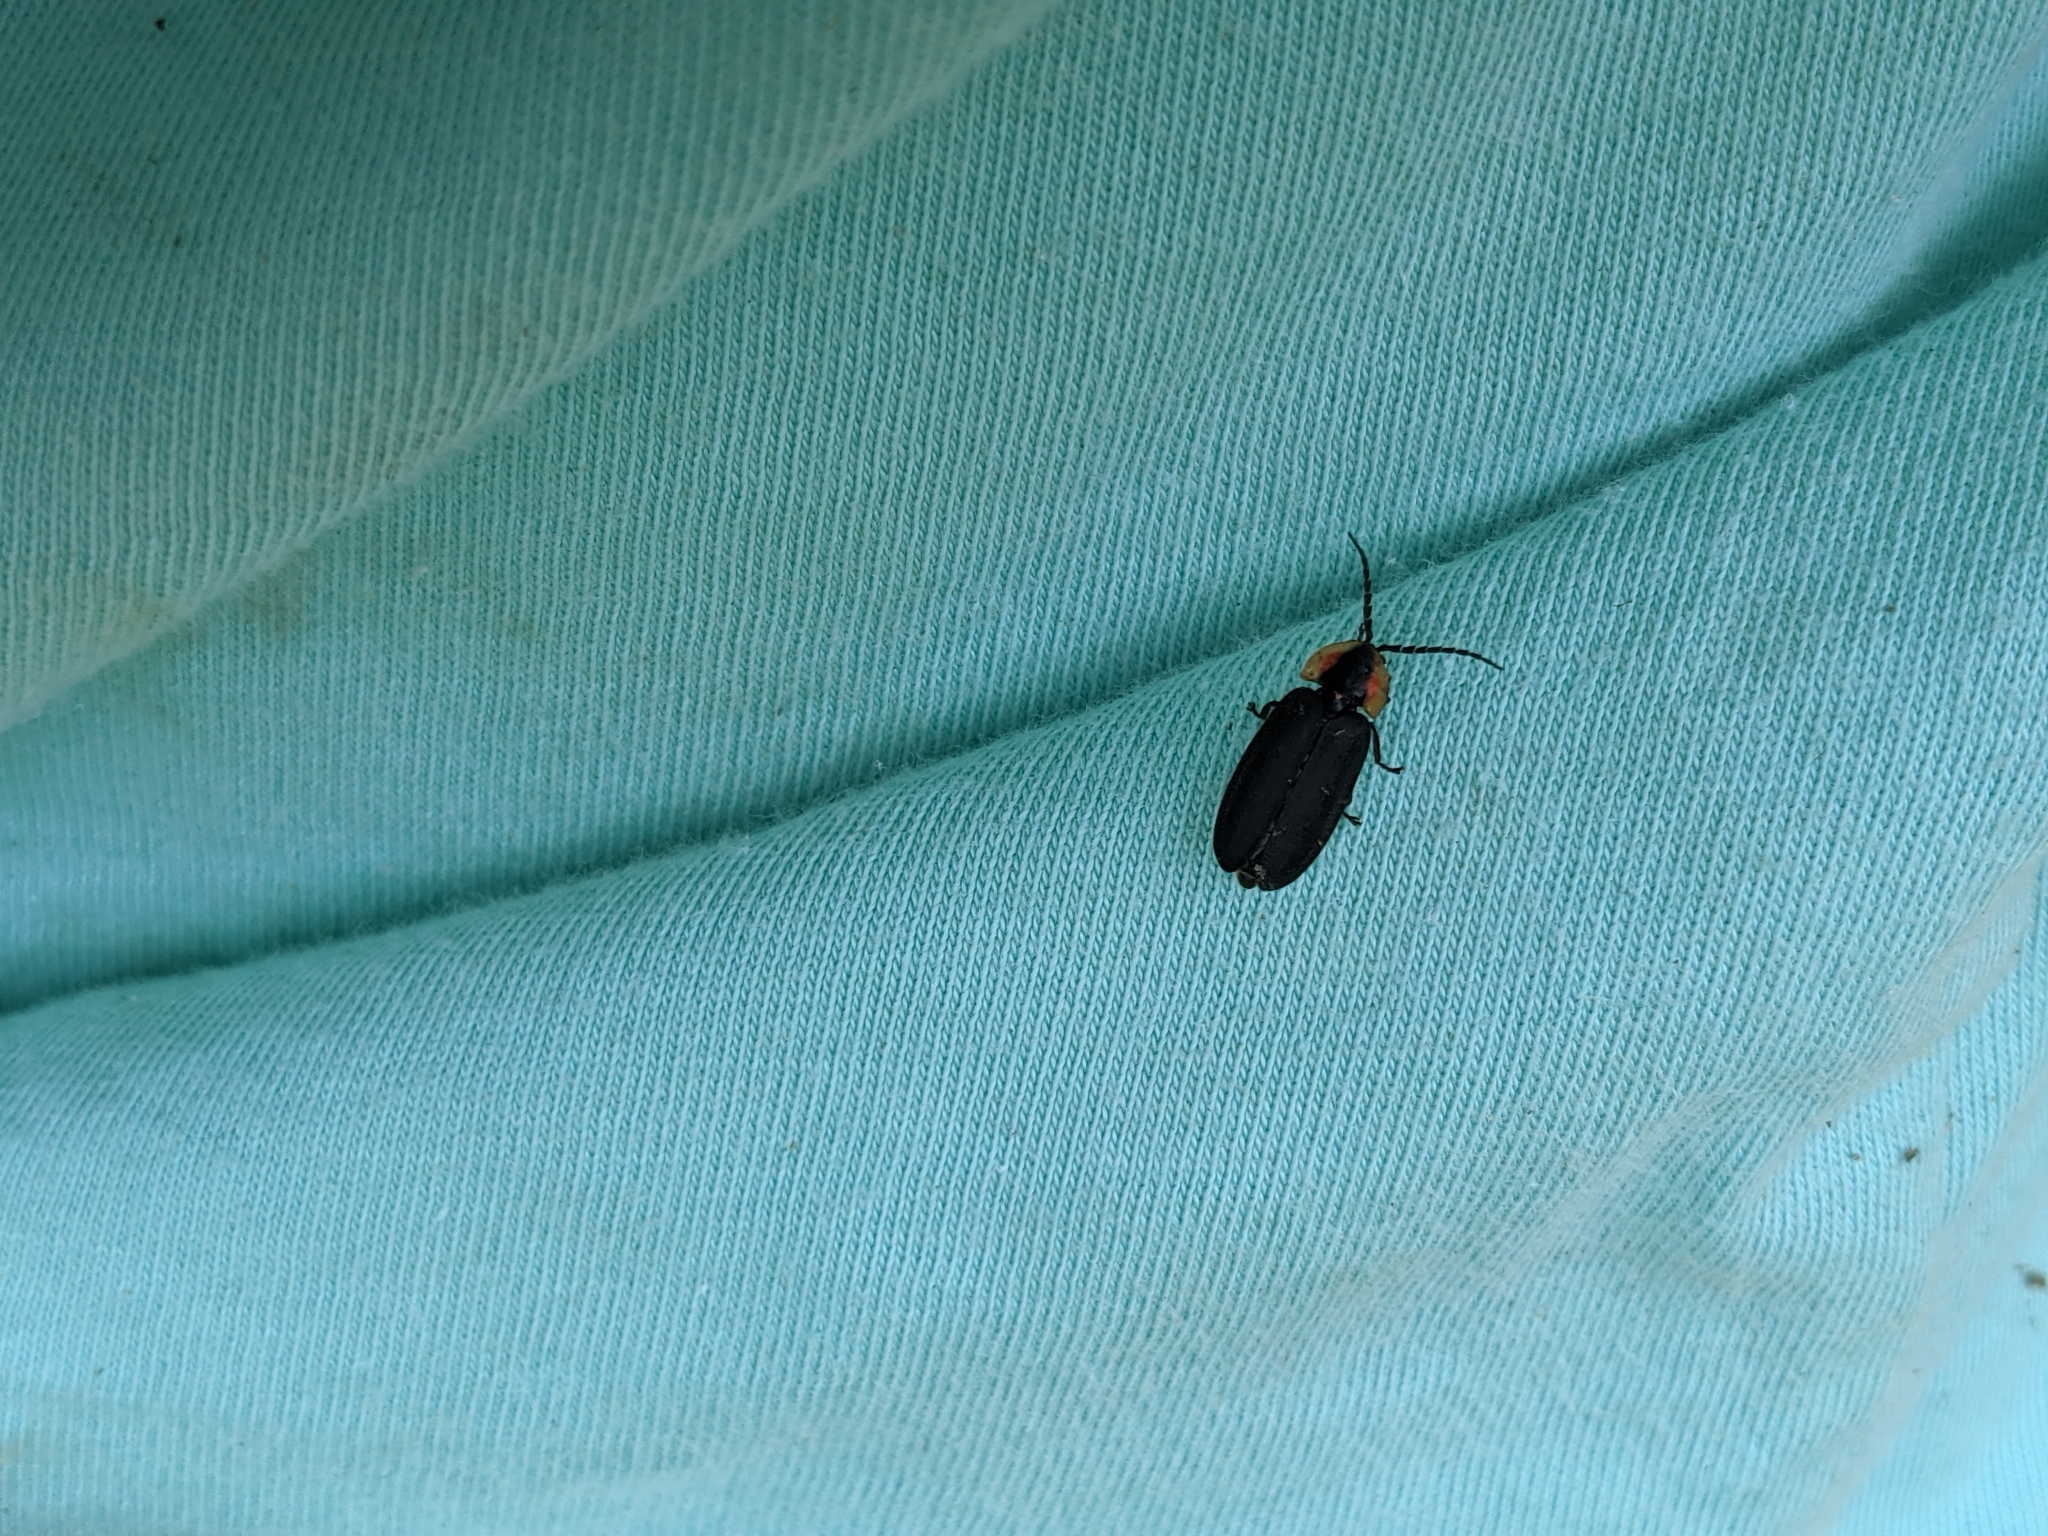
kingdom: Animalia
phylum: Arthropoda
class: Insecta
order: Coleoptera
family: Lampyridae
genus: Lucidota
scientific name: Lucidota atra
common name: Black firefly
